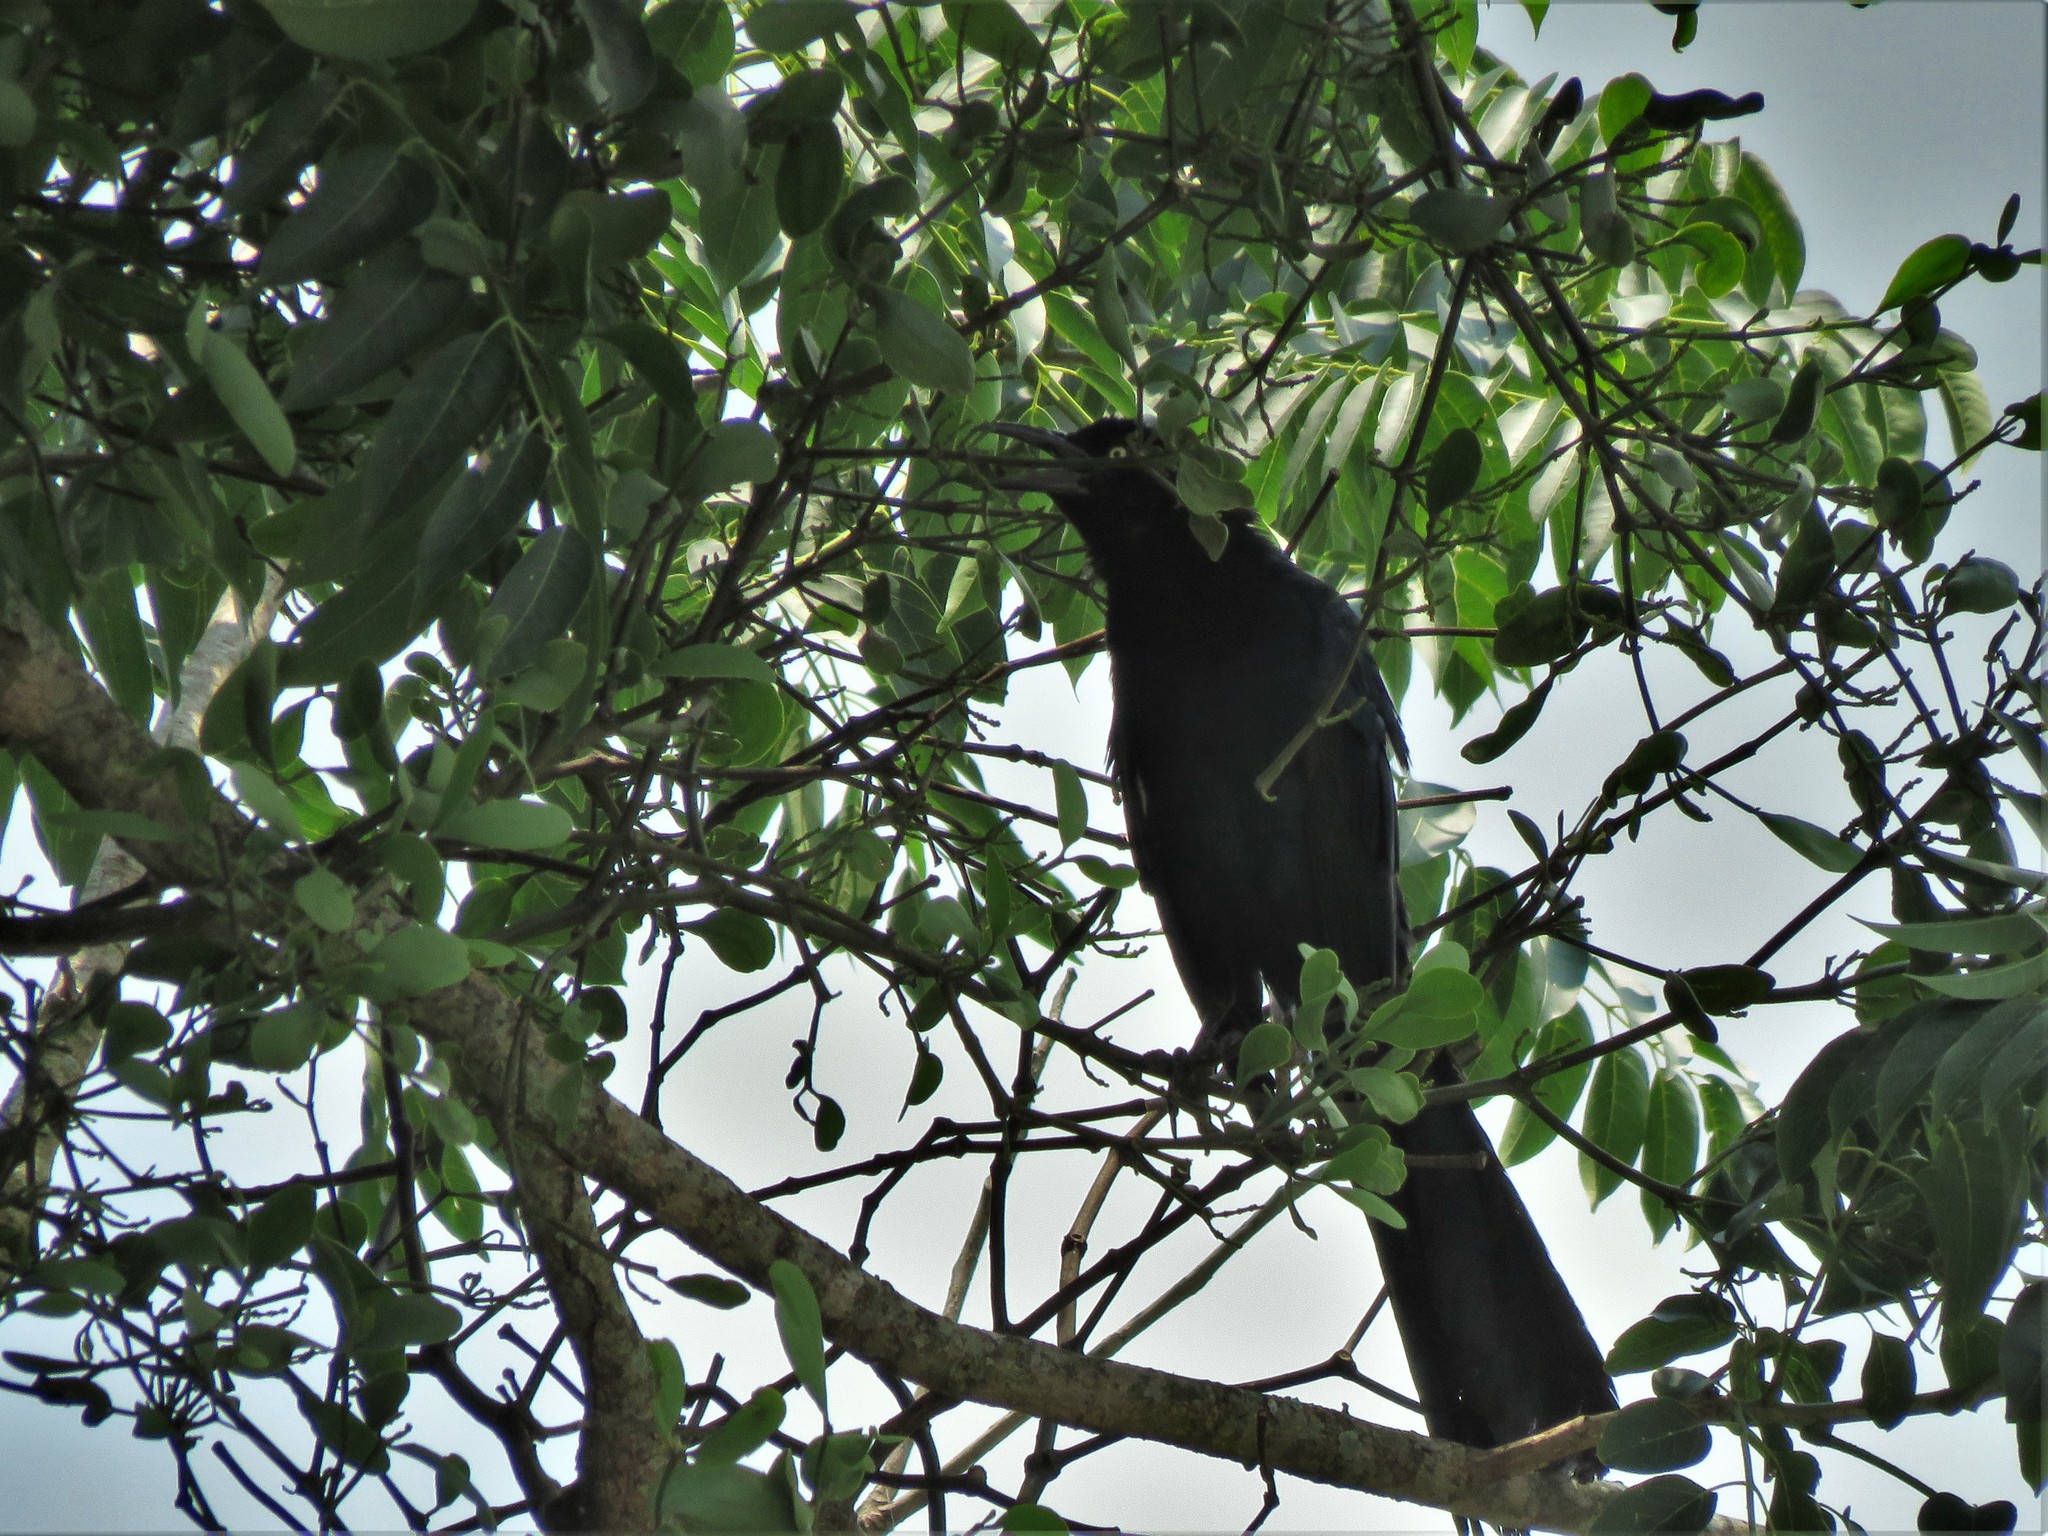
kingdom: Animalia
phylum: Chordata
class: Aves
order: Passeriformes
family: Icteridae
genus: Quiscalus
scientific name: Quiscalus mexicanus
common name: Great-tailed grackle
